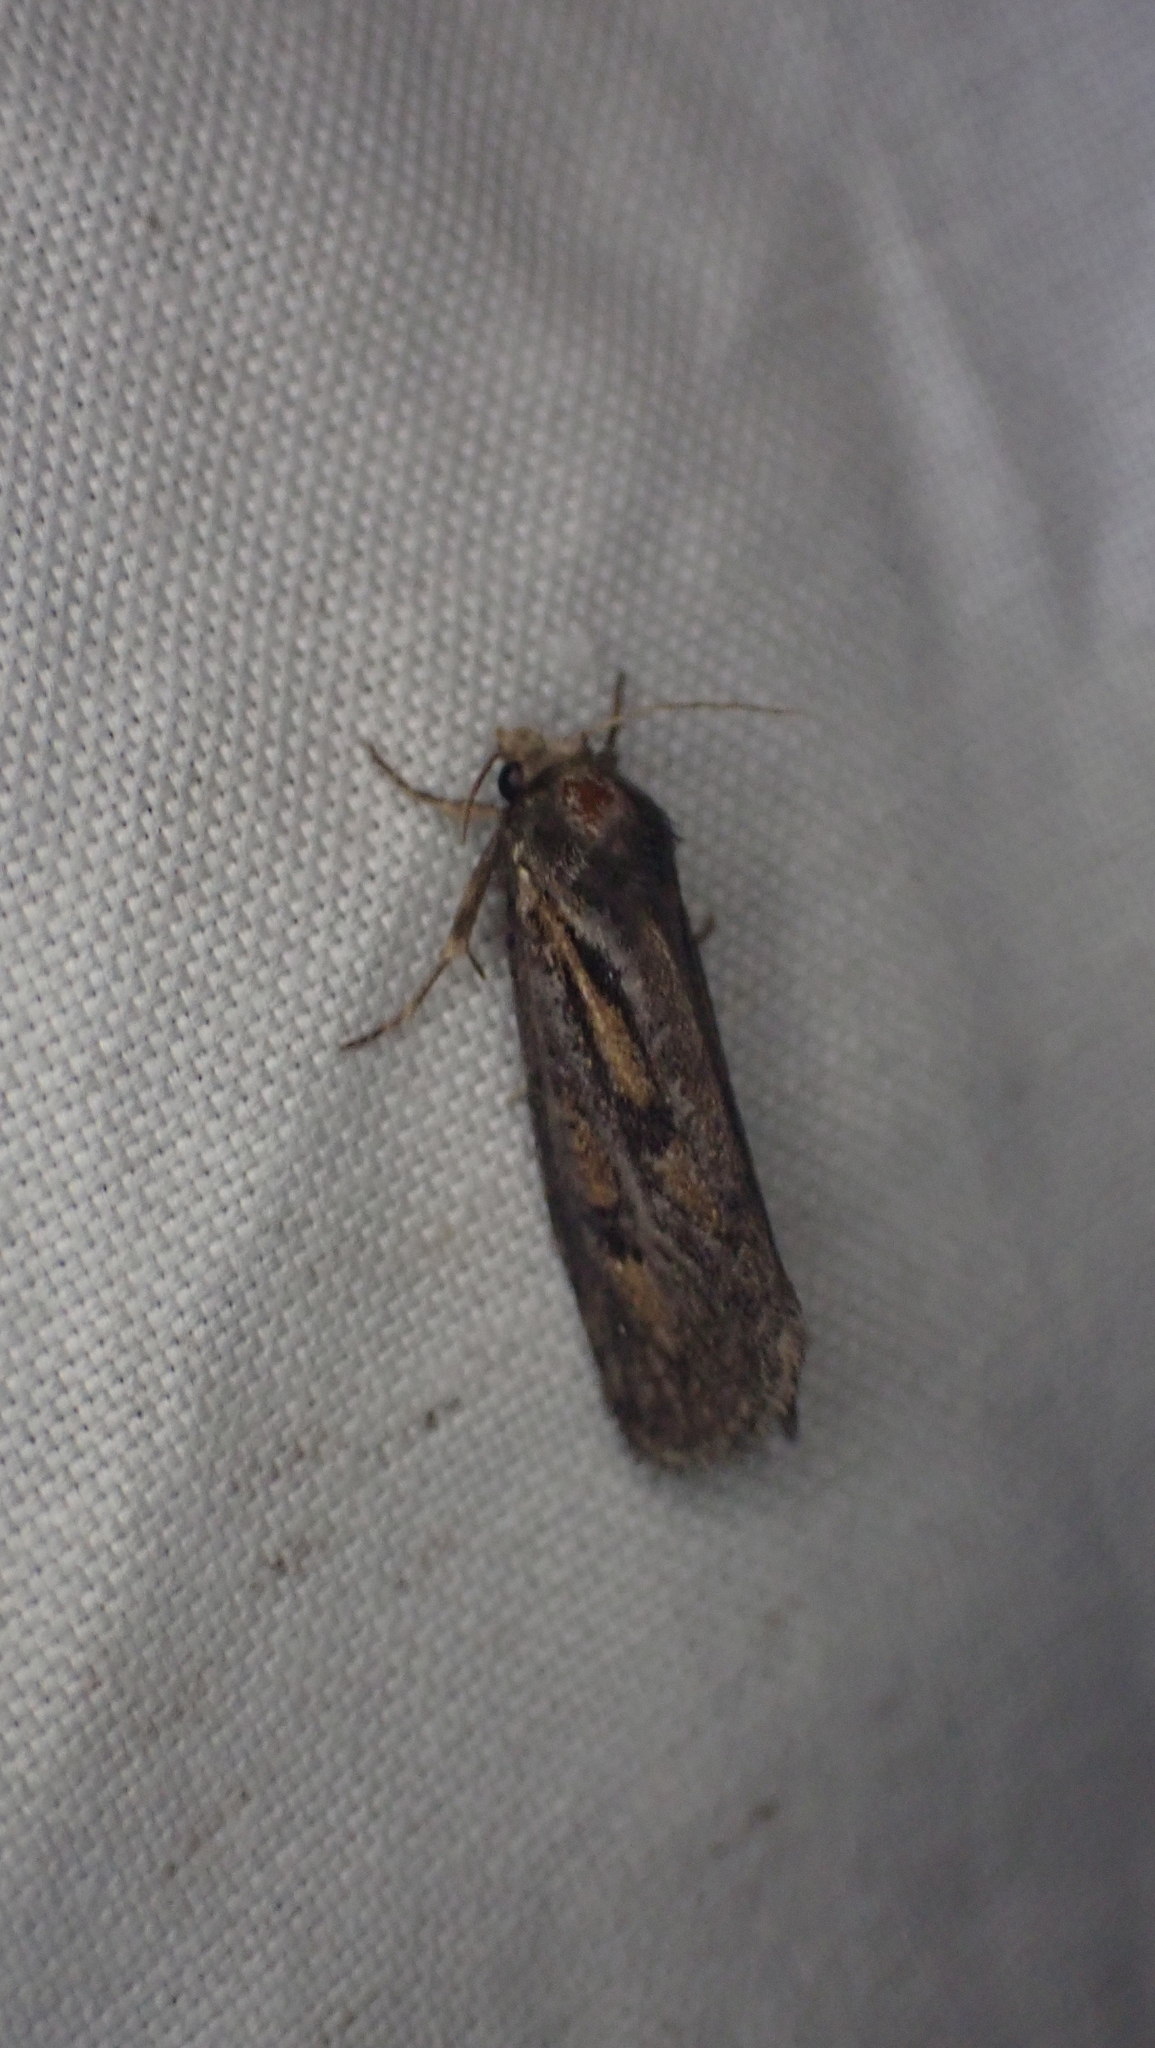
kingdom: Animalia
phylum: Arthropoda
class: Insecta
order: Lepidoptera
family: Tineidae
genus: Acrolophus
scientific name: Acrolophus popeanella
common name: Clemens' grass tubeworm moth
